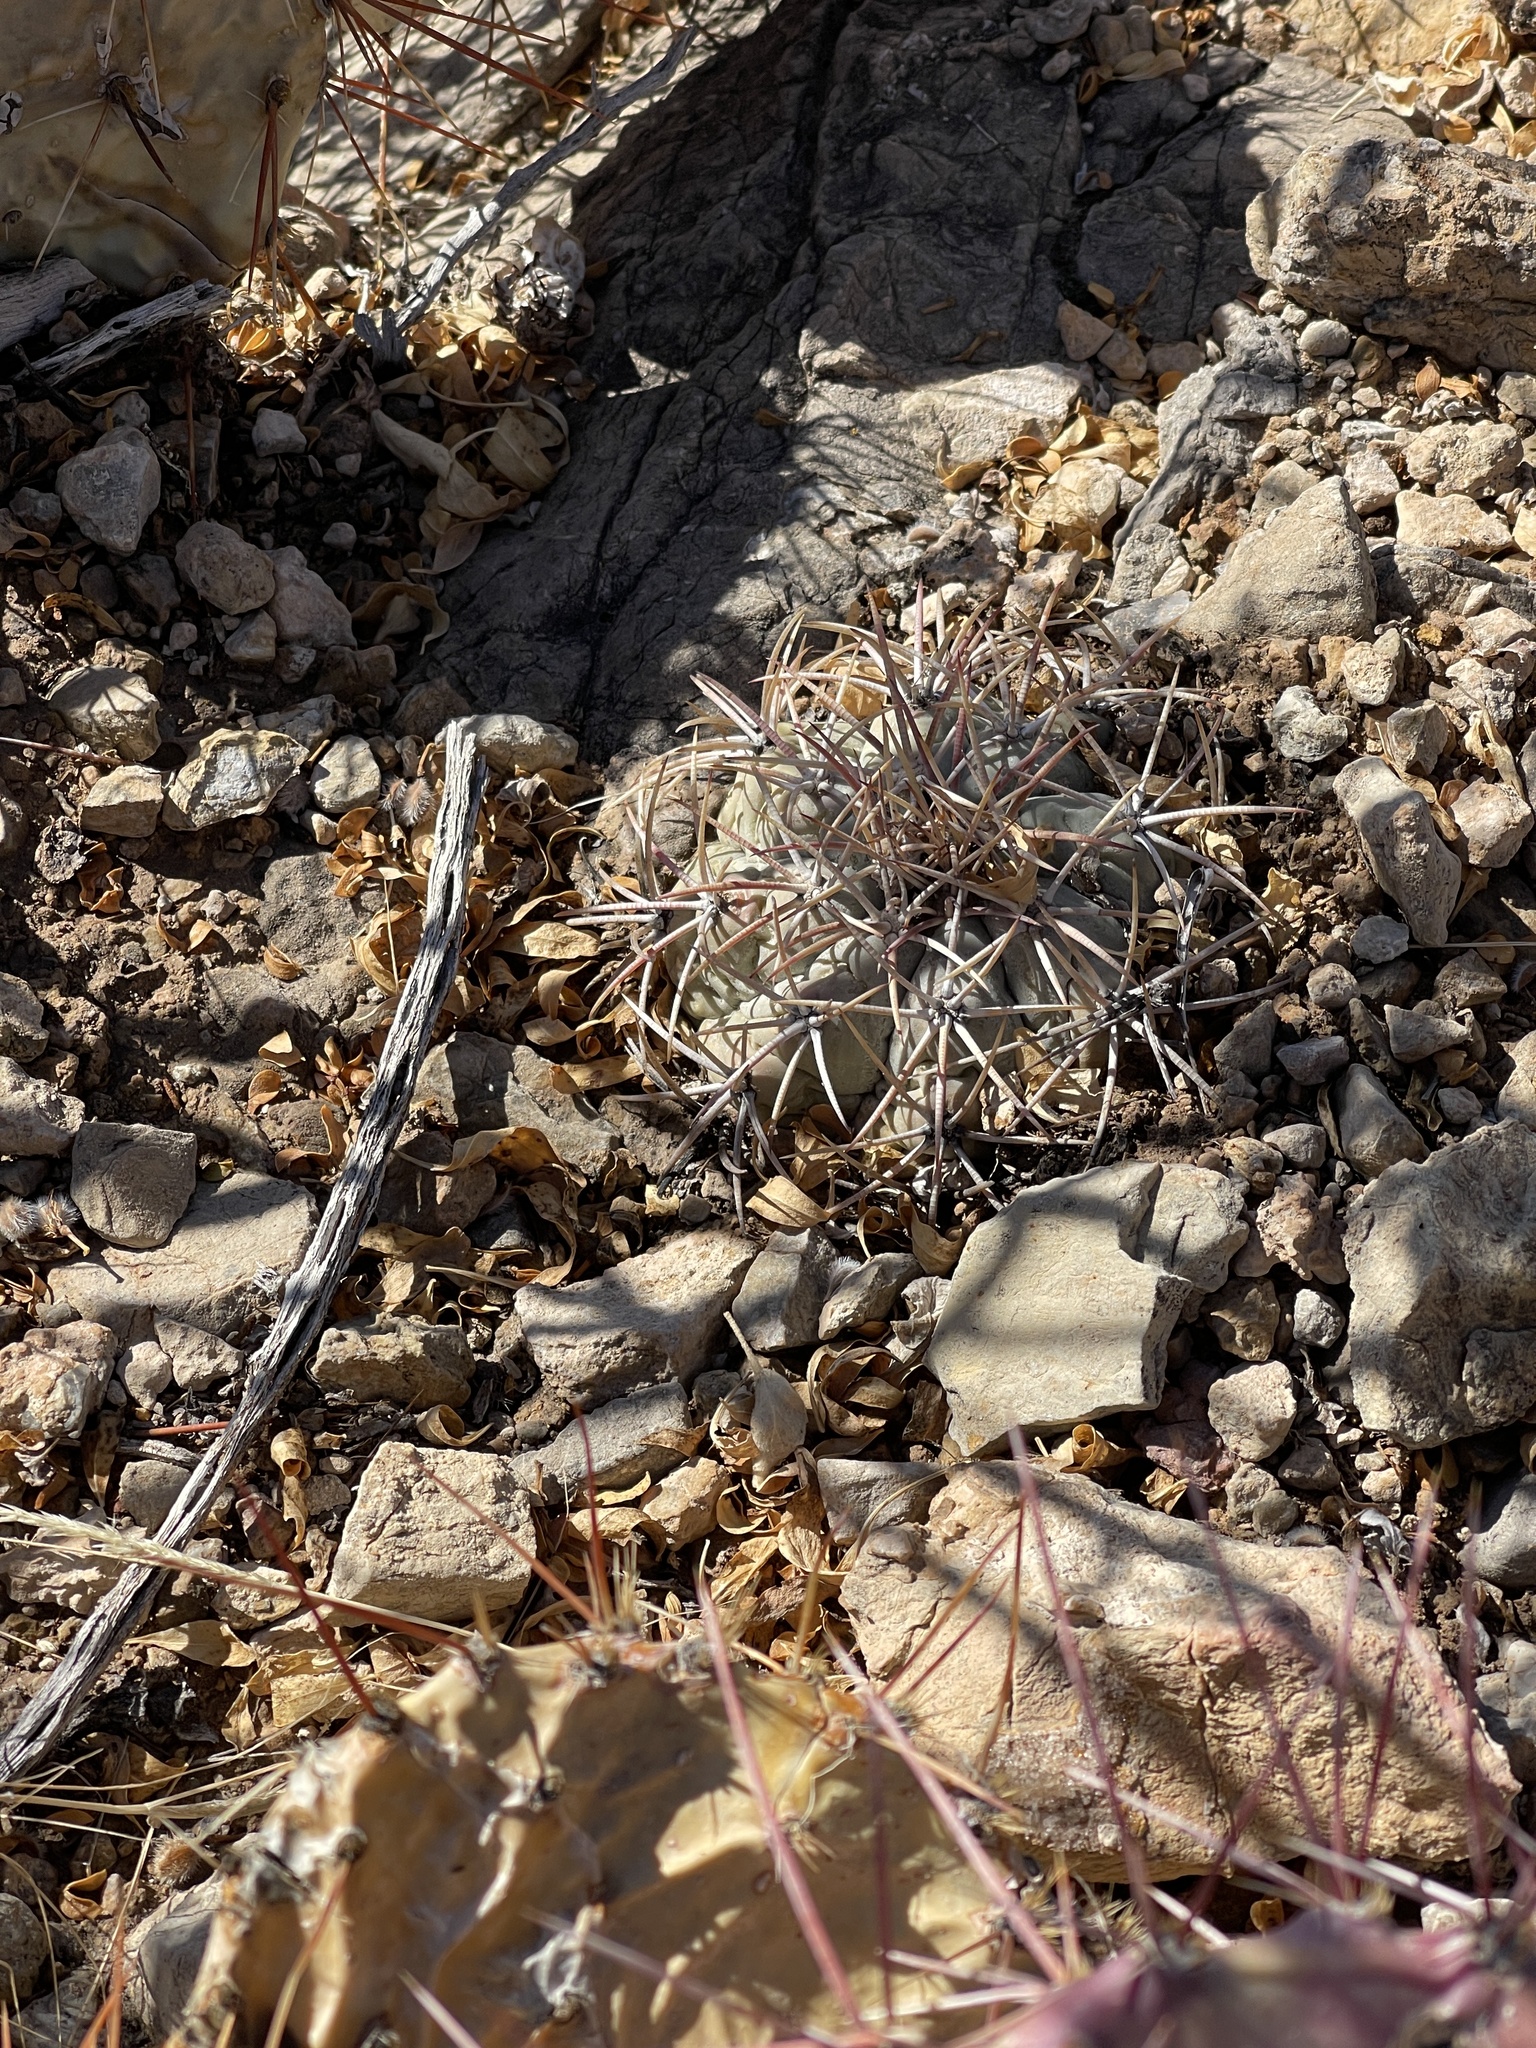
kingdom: Plantae
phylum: Tracheophyta
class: Magnoliopsida
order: Caryophyllales
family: Cactaceae
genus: Echinocactus
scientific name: Echinocactus horizonthalonius
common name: Devilshead
